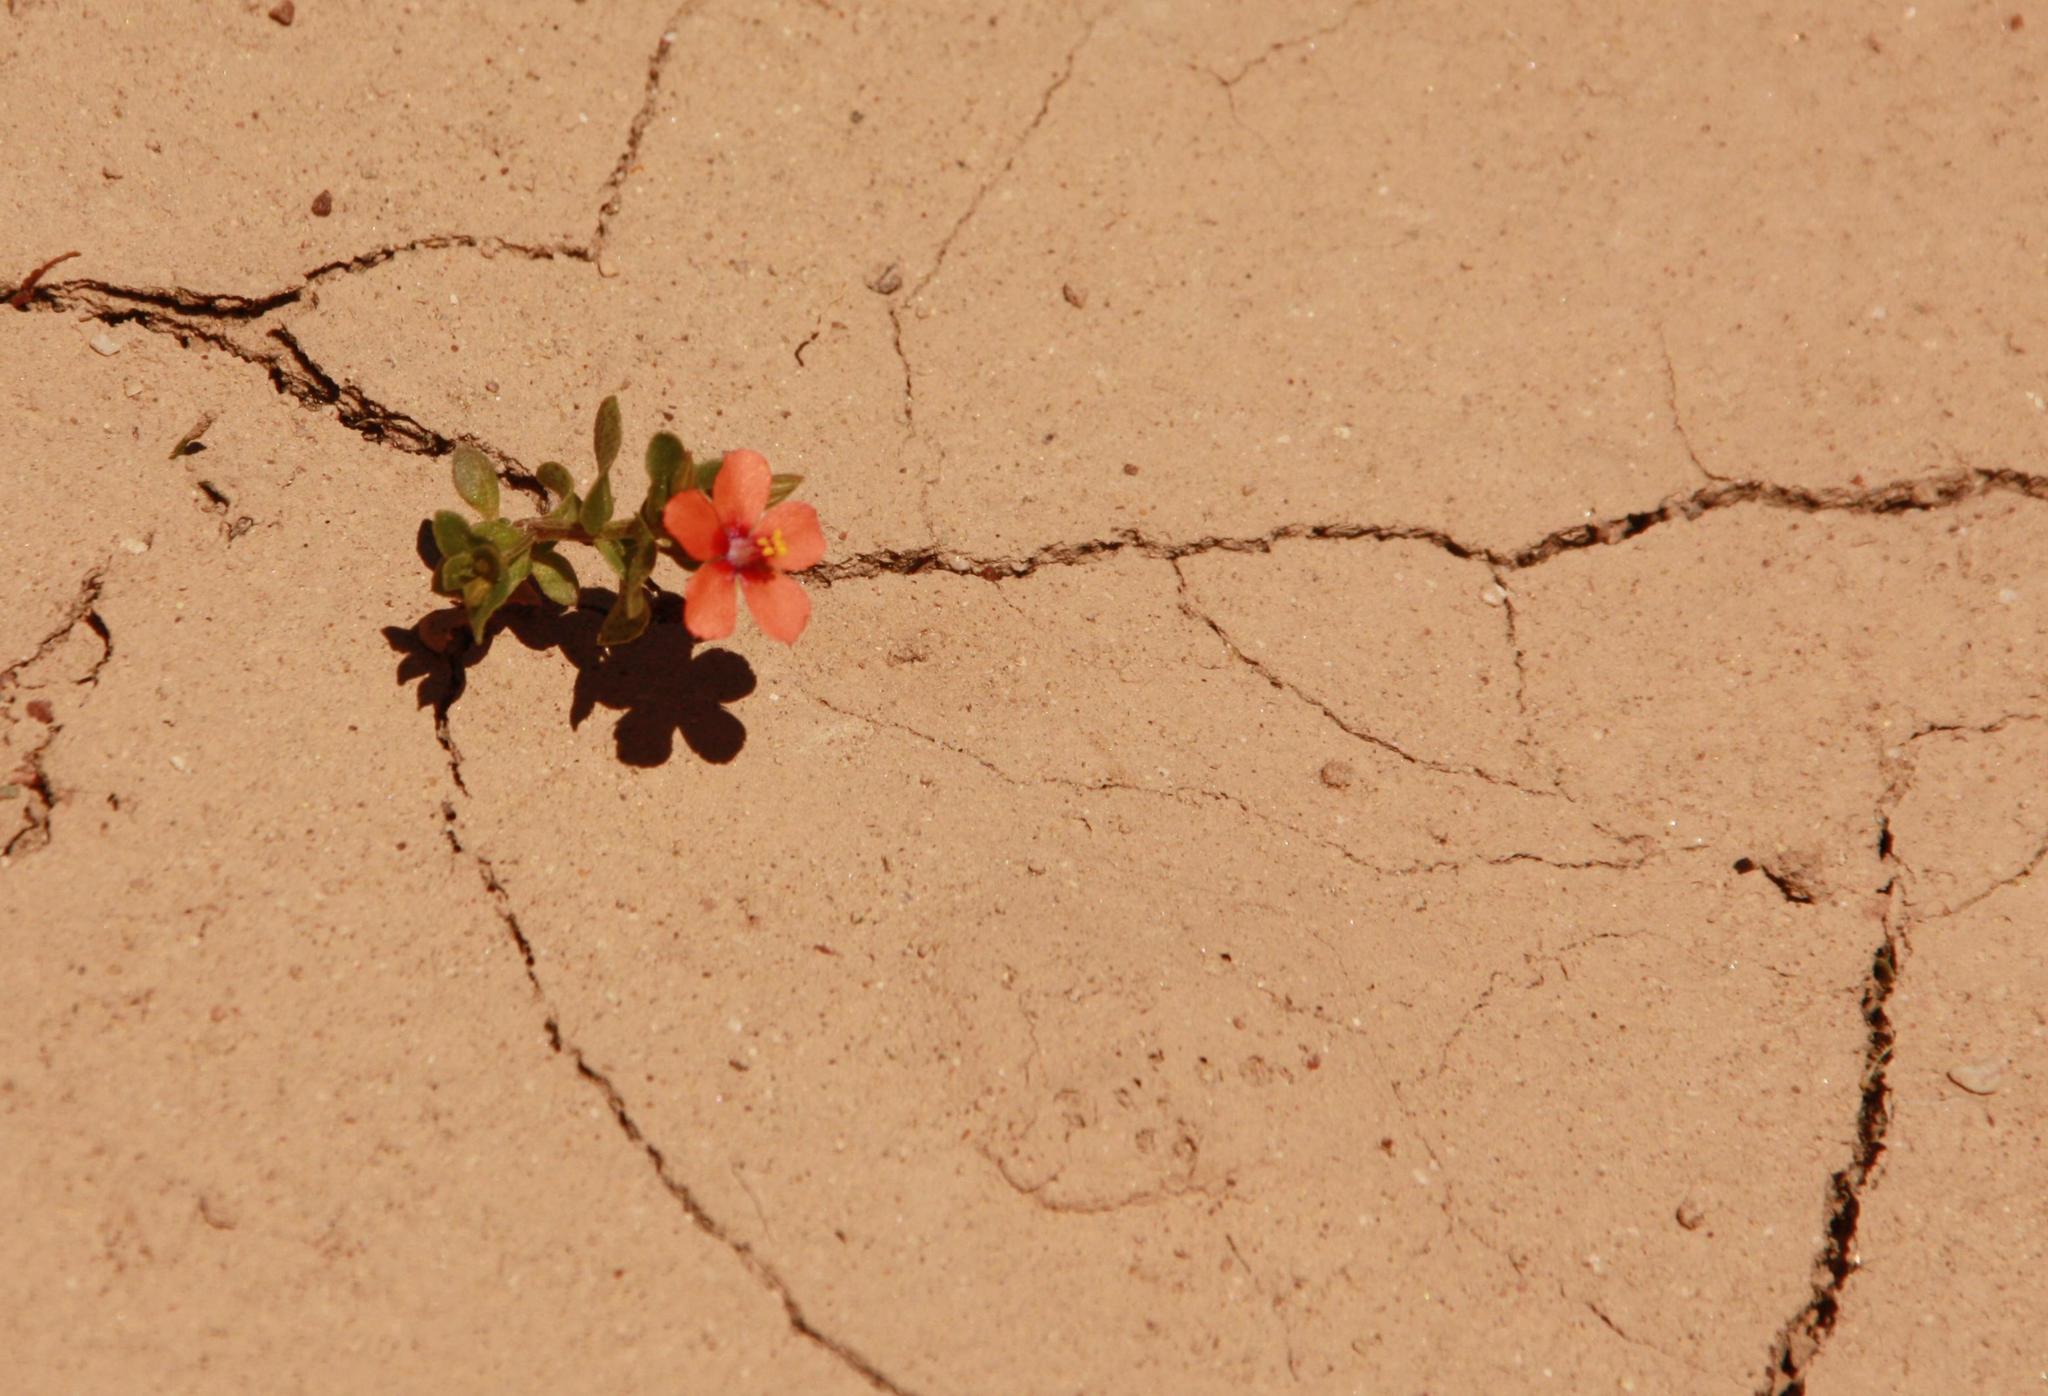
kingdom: Plantae
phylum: Tracheophyta
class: Magnoliopsida
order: Ericales
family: Primulaceae
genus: Lysimachia
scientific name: Lysimachia arvensis
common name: Scarlet pimpernel
